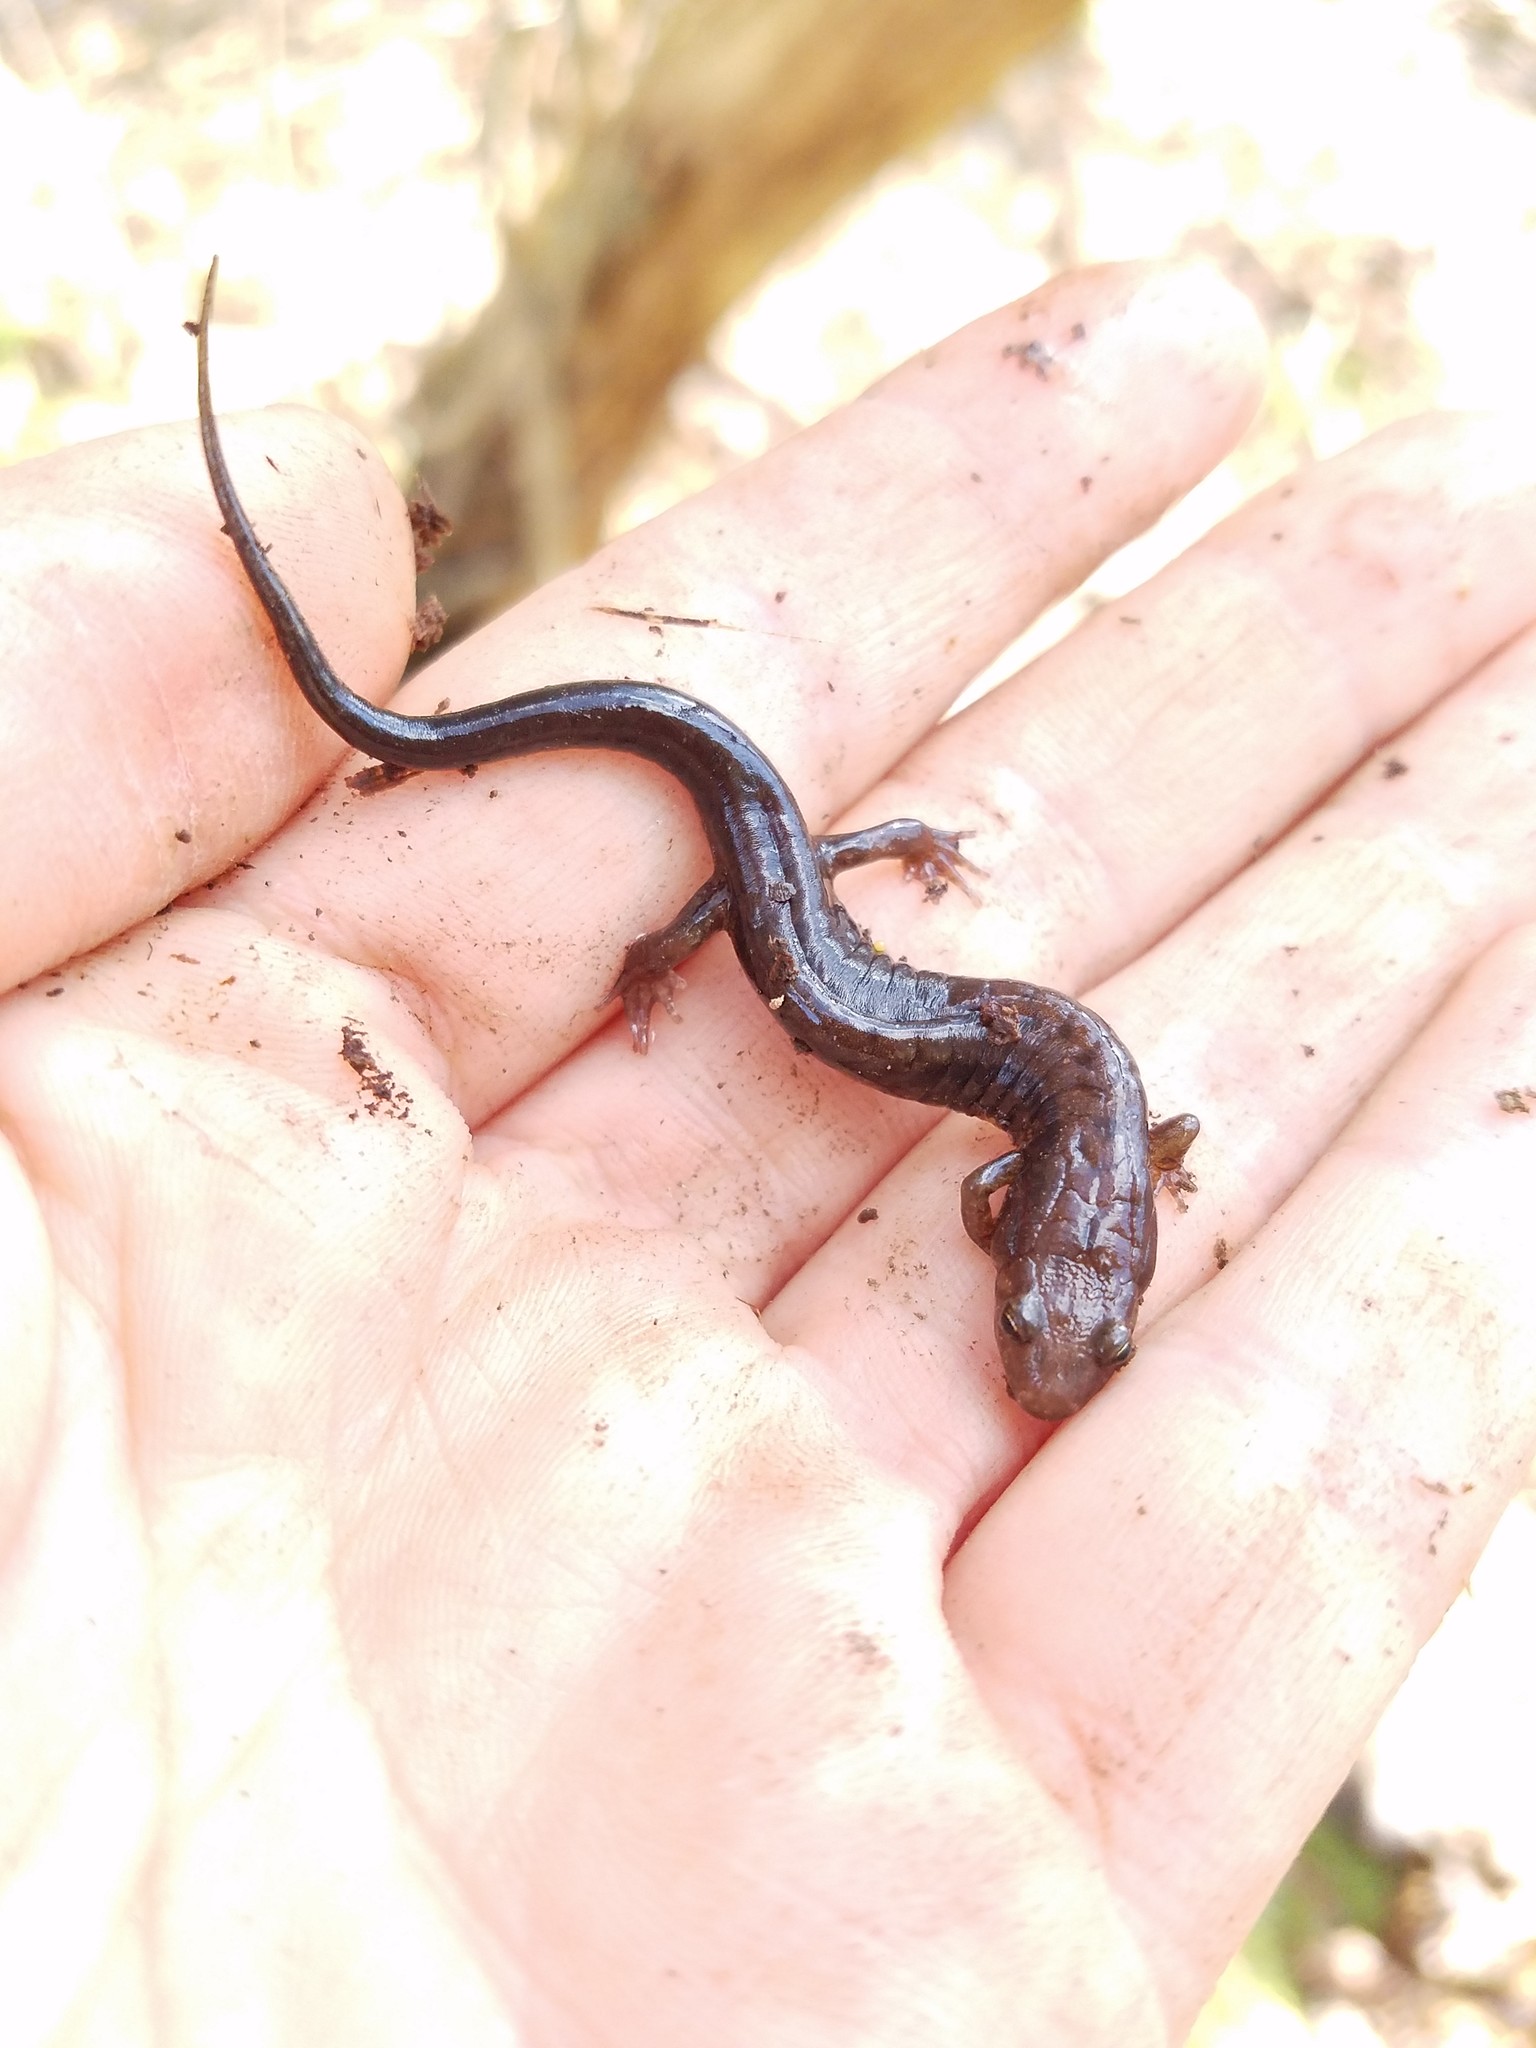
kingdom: Animalia
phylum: Chordata
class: Amphibia
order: Caudata
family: Plethodontidae
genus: Desmognathus
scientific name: Desmognathus ochrophaeus
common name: Allegheny mountain dusky salamander
